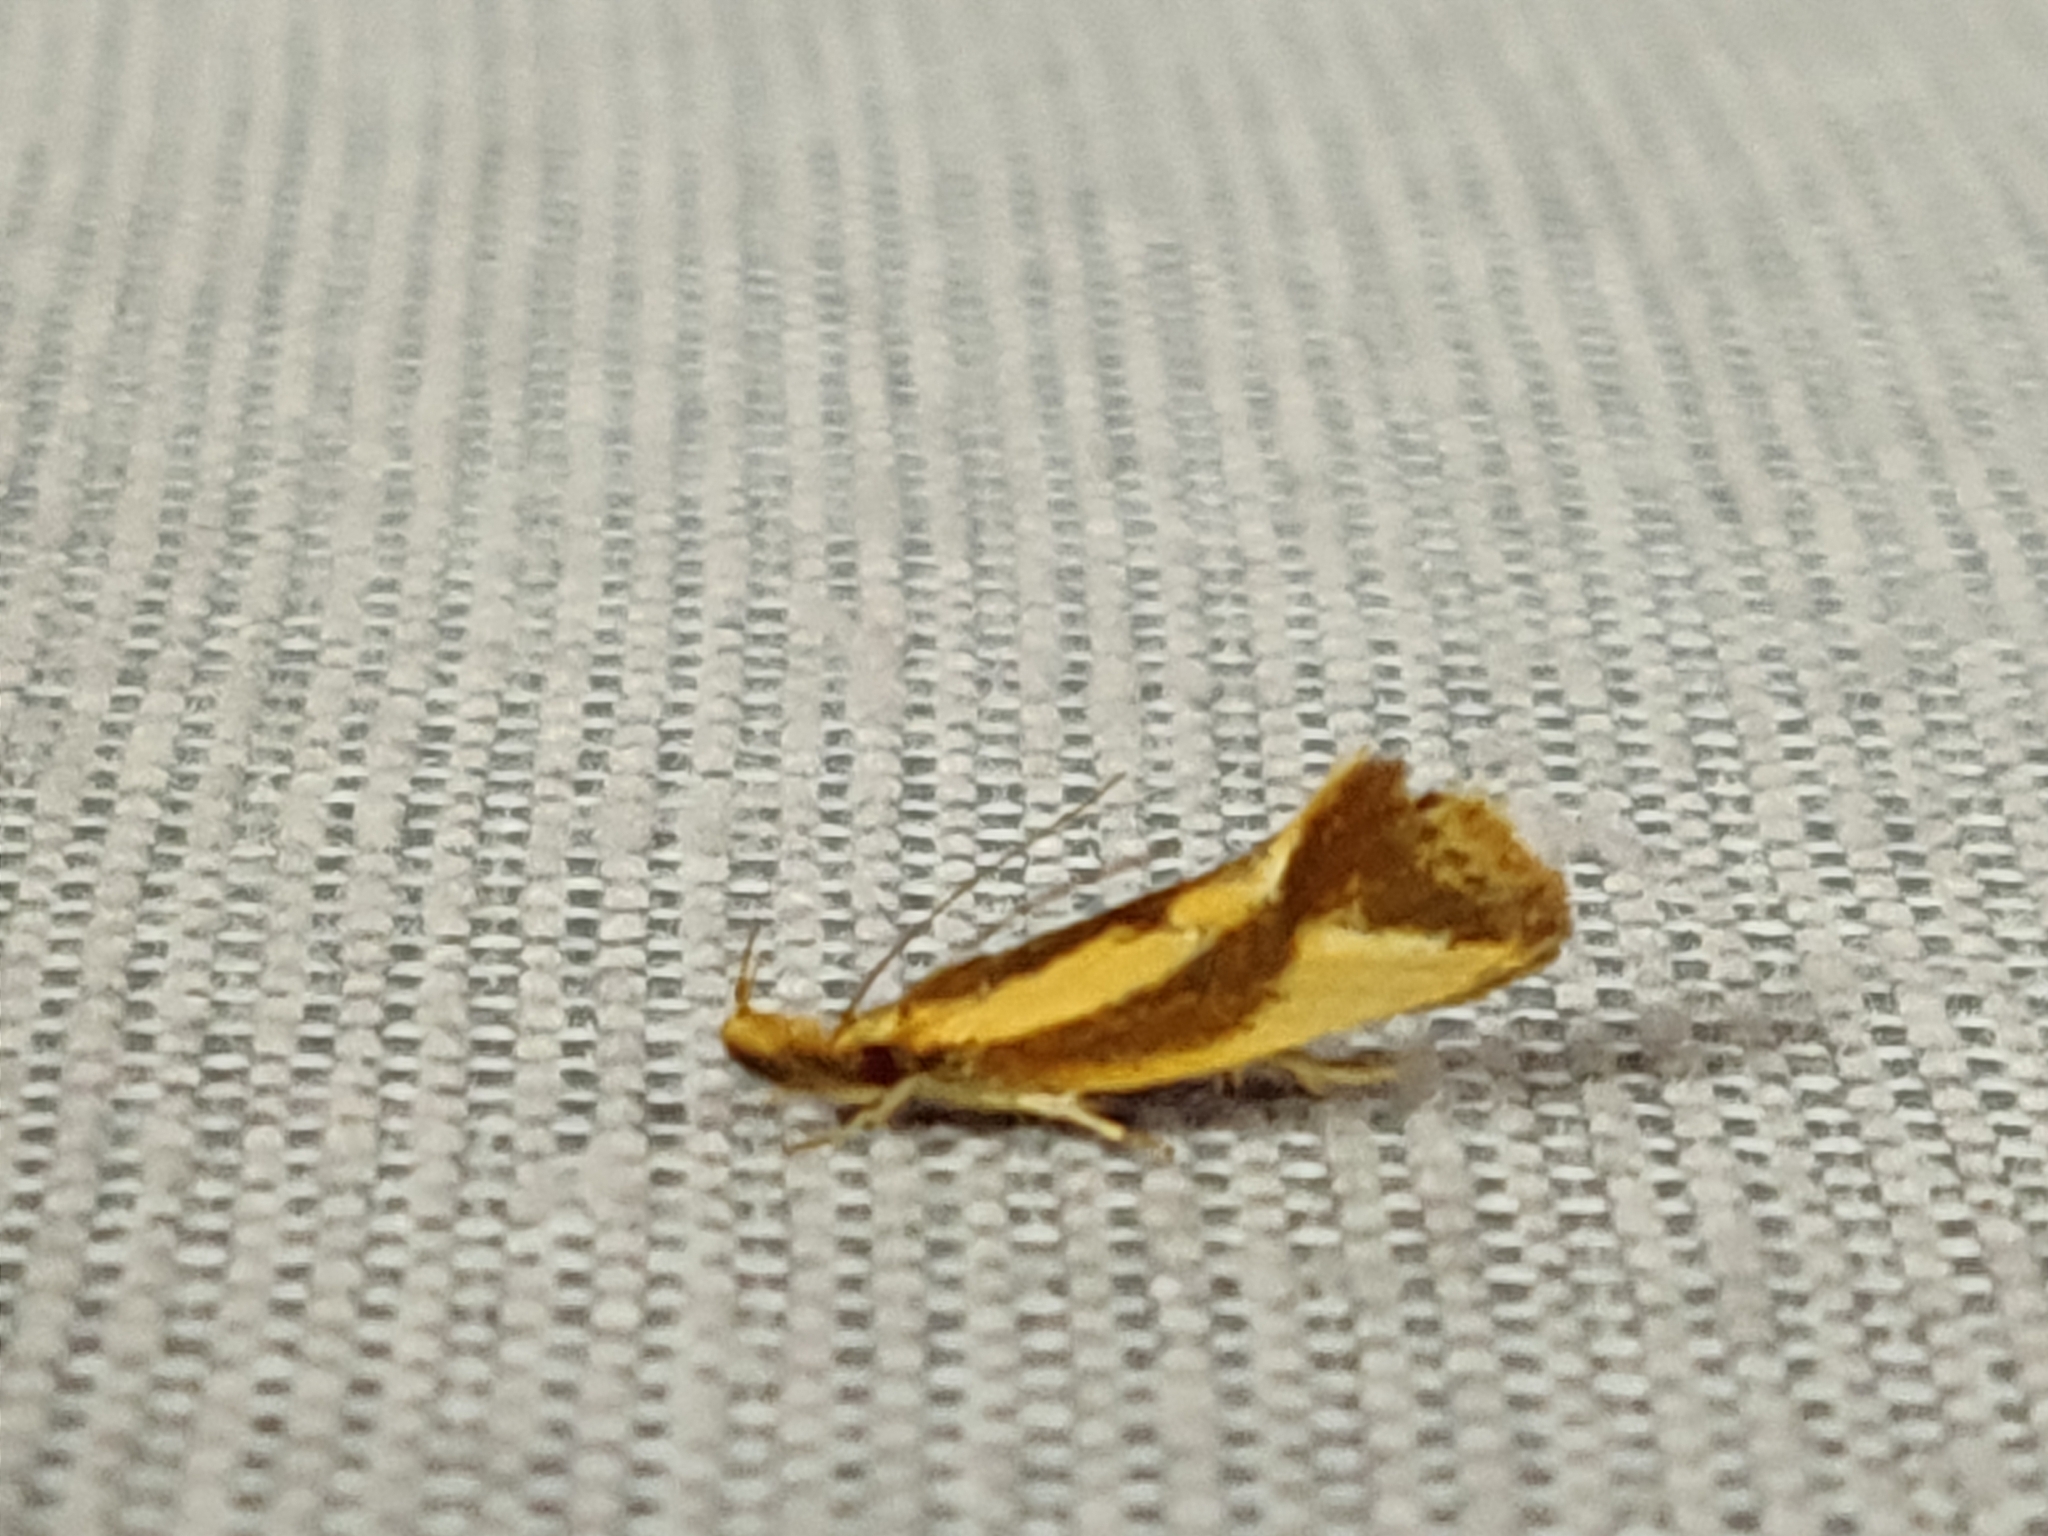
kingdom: Animalia
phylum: Arthropoda
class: Insecta
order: Lepidoptera
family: Oecophoridae
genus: Thema
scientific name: Thema psammoxantha
